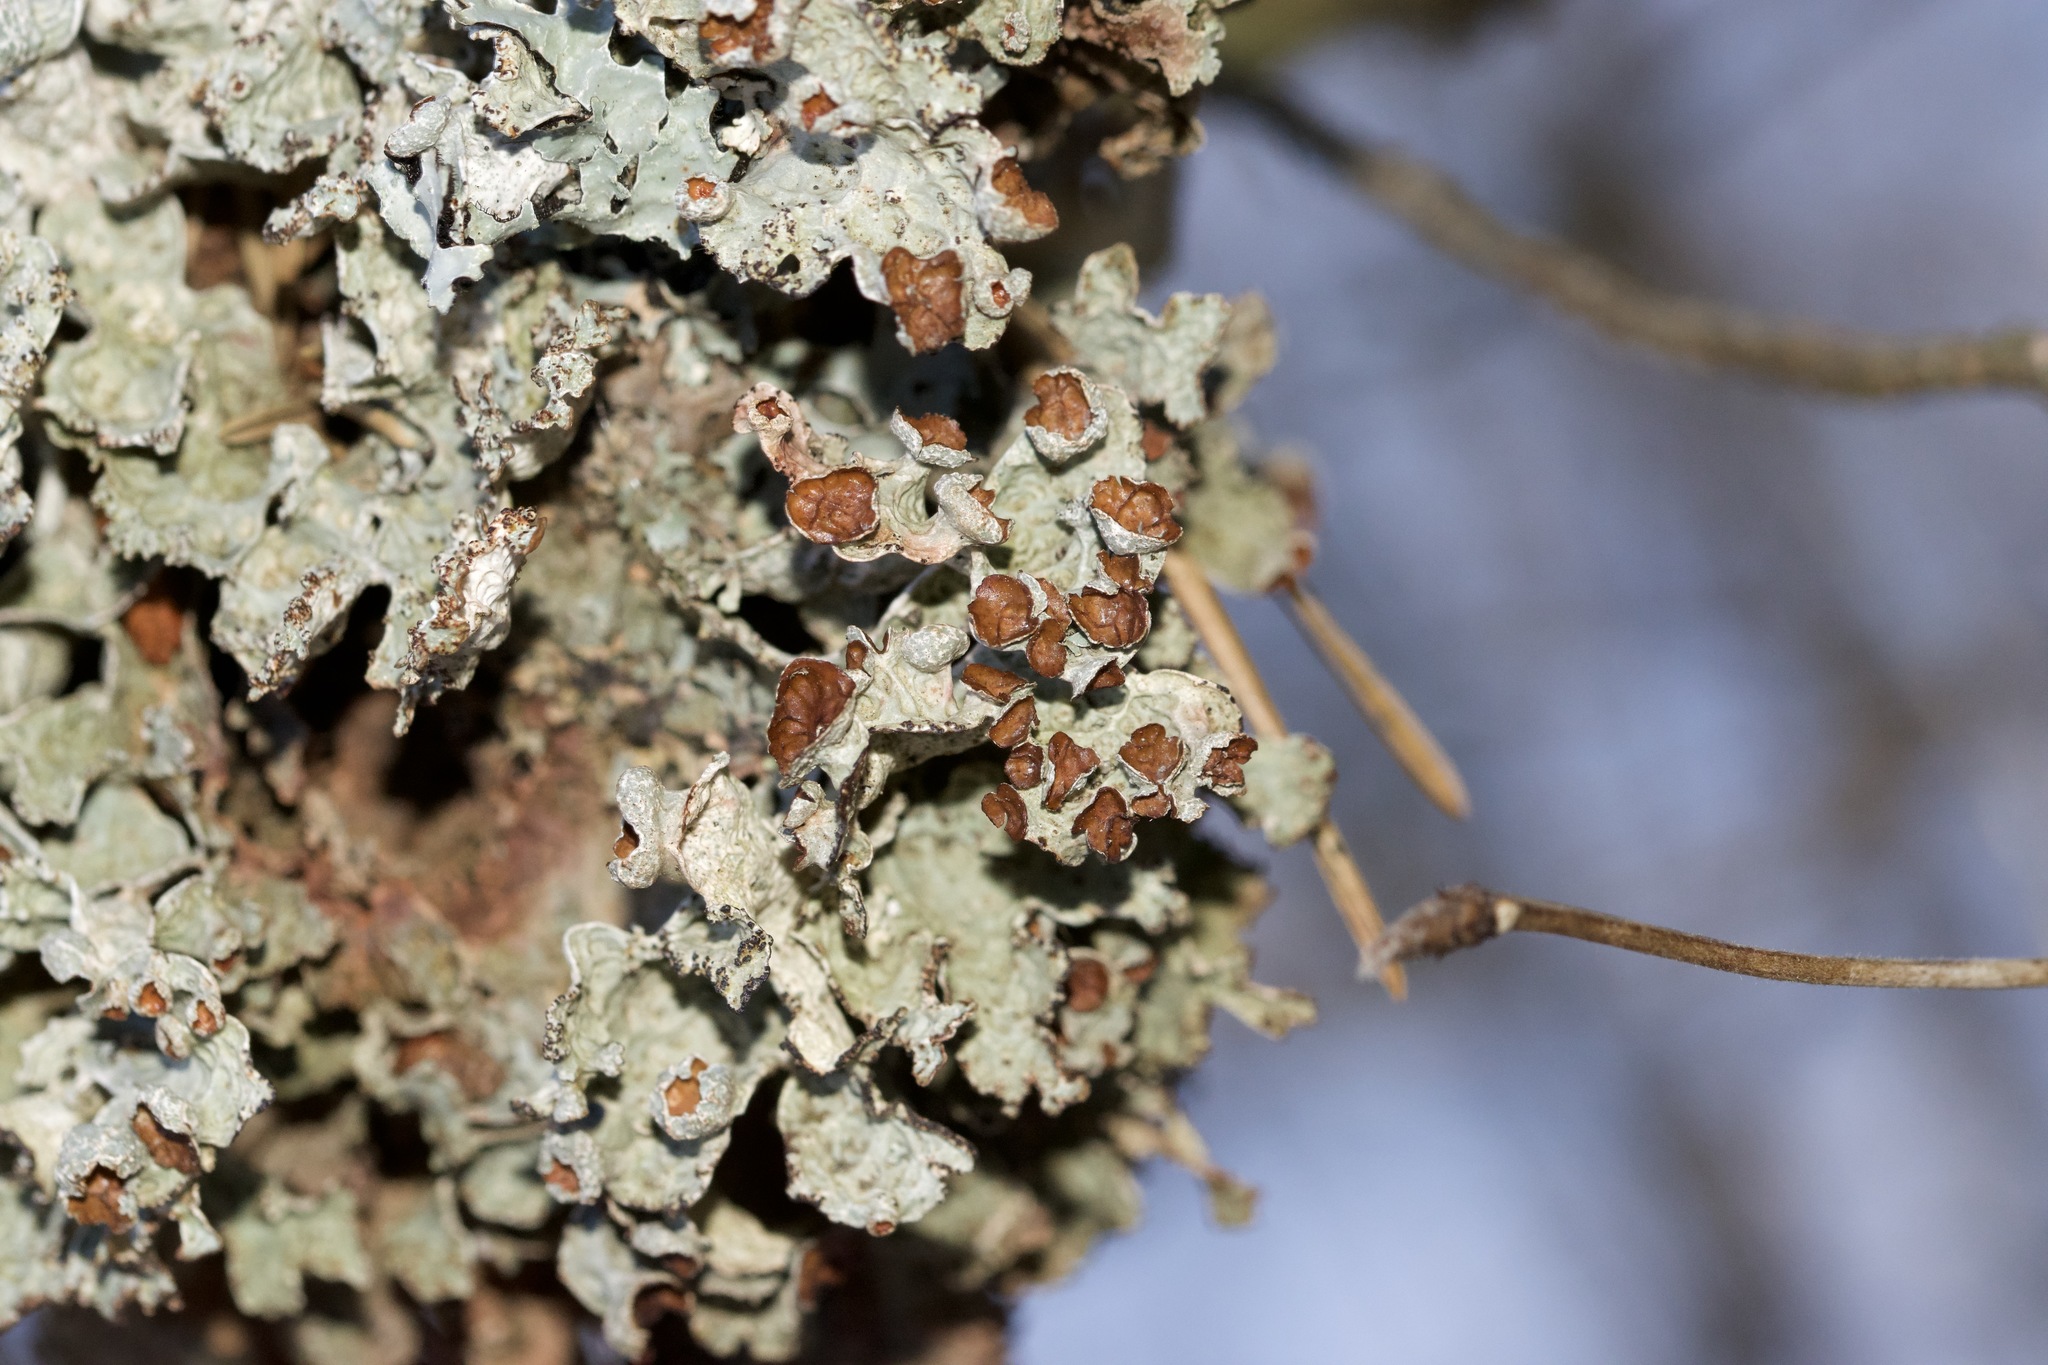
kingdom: Fungi
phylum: Ascomycota
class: Lecanoromycetes
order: Lecanorales
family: Parmeliaceae
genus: Platismatia
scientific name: Platismatia tuckermanii
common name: Crumpled rag lichen
